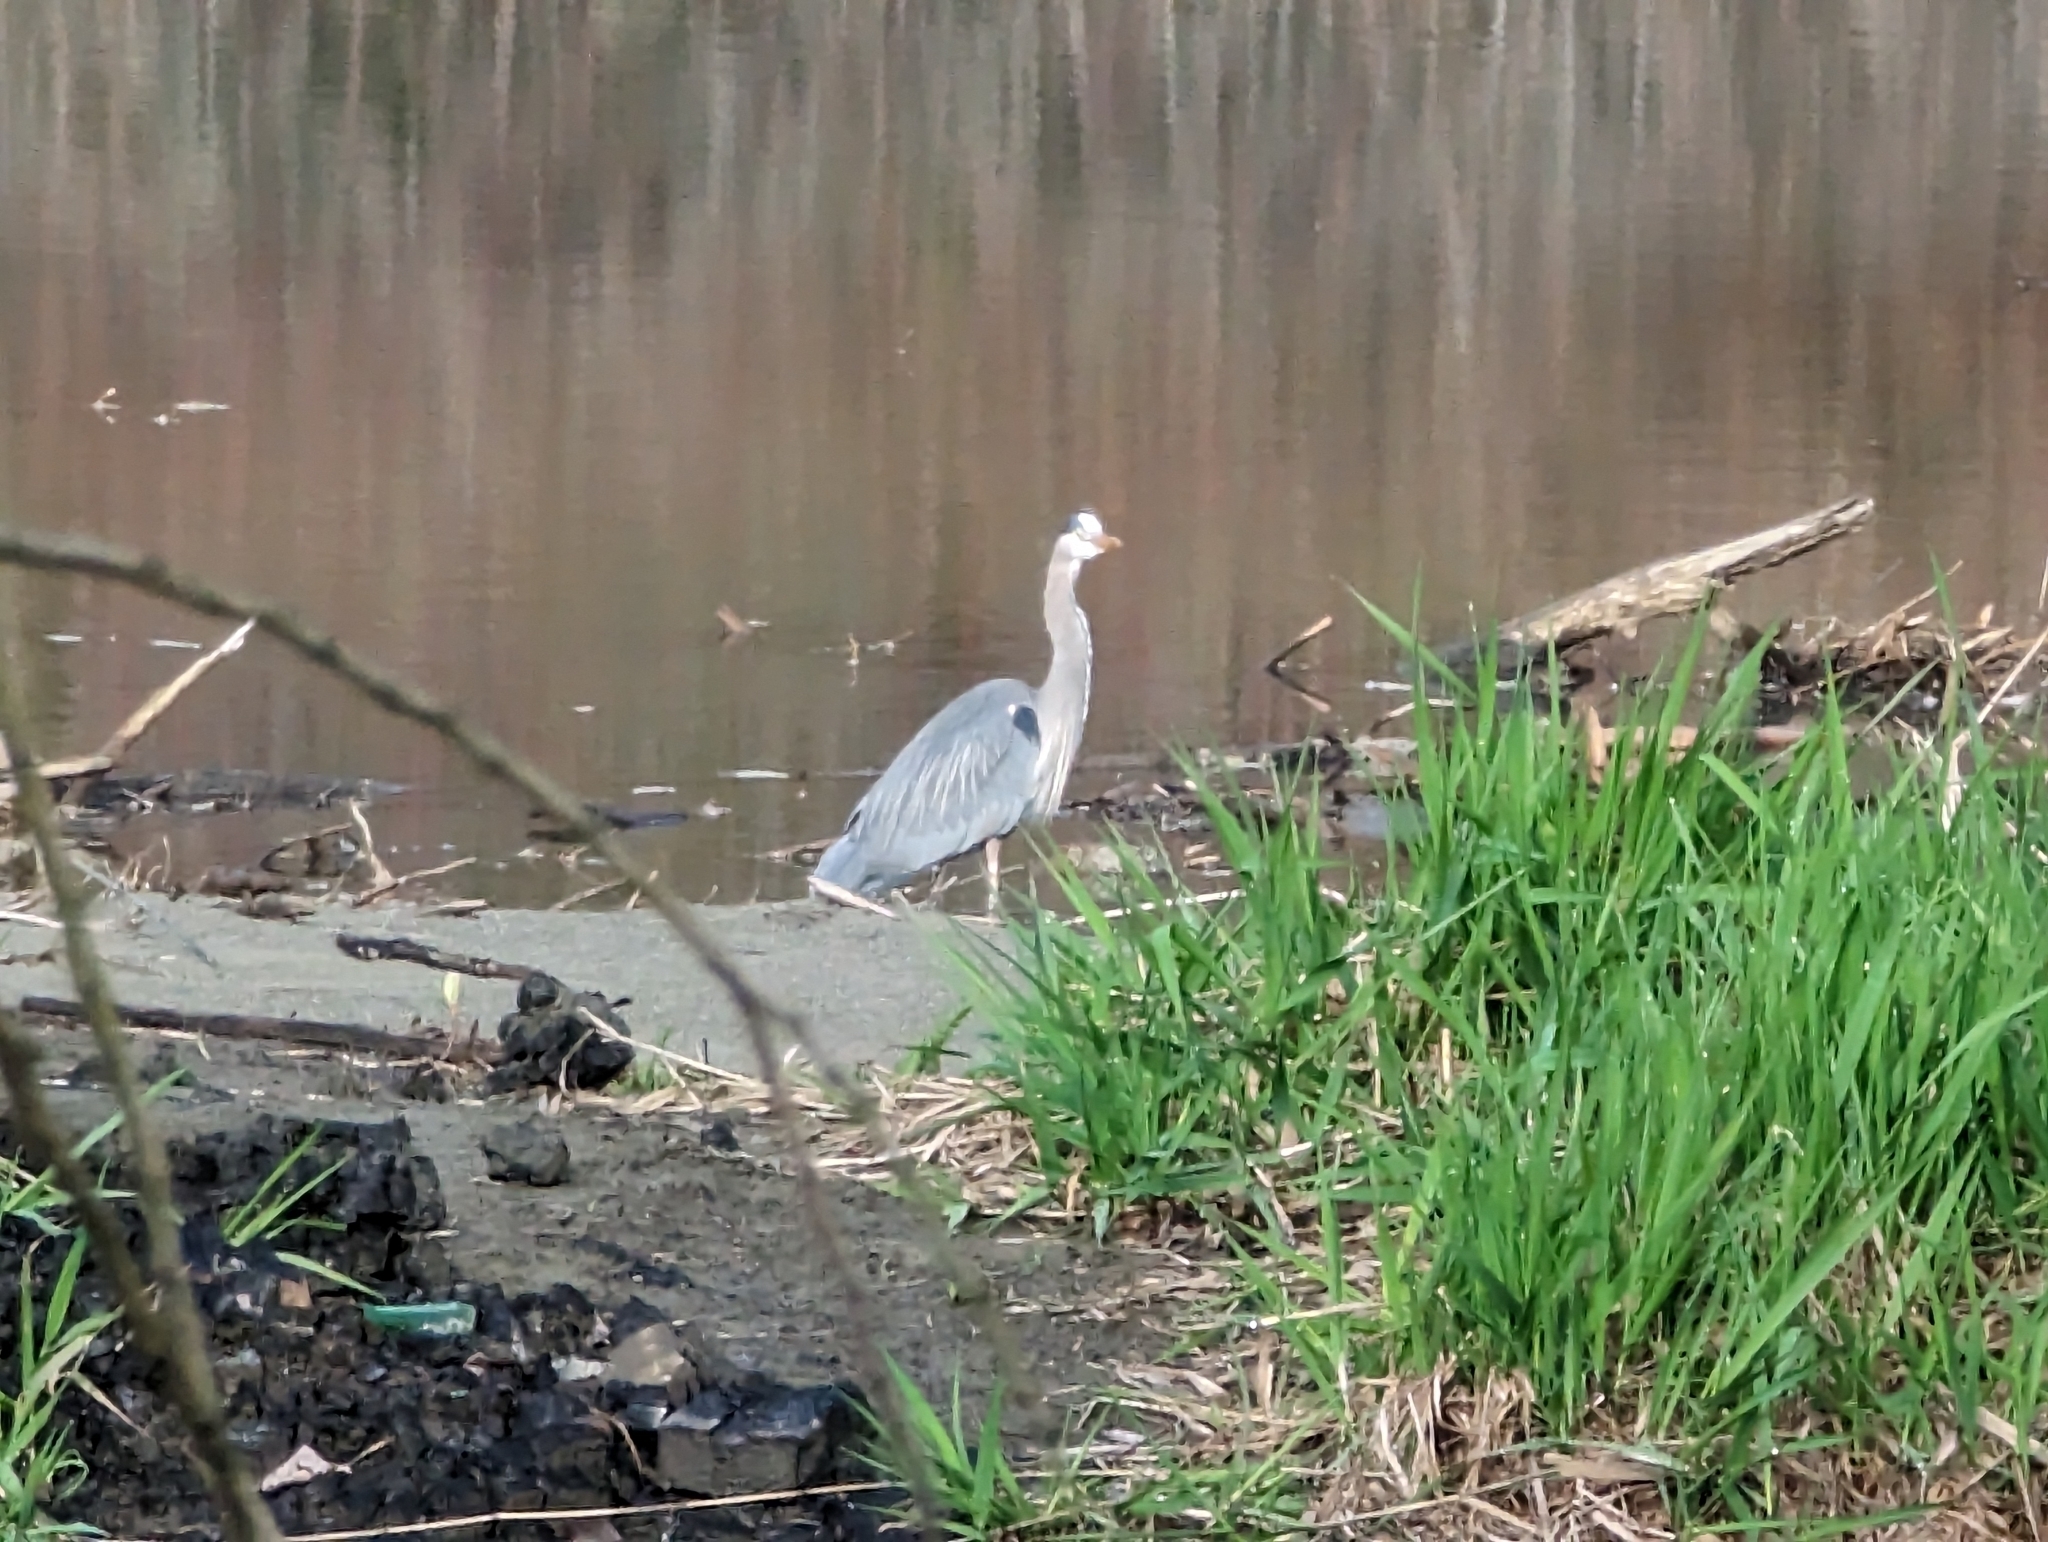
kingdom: Animalia
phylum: Chordata
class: Aves
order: Pelecaniformes
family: Ardeidae
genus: Ardea
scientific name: Ardea herodias
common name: Great blue heron
